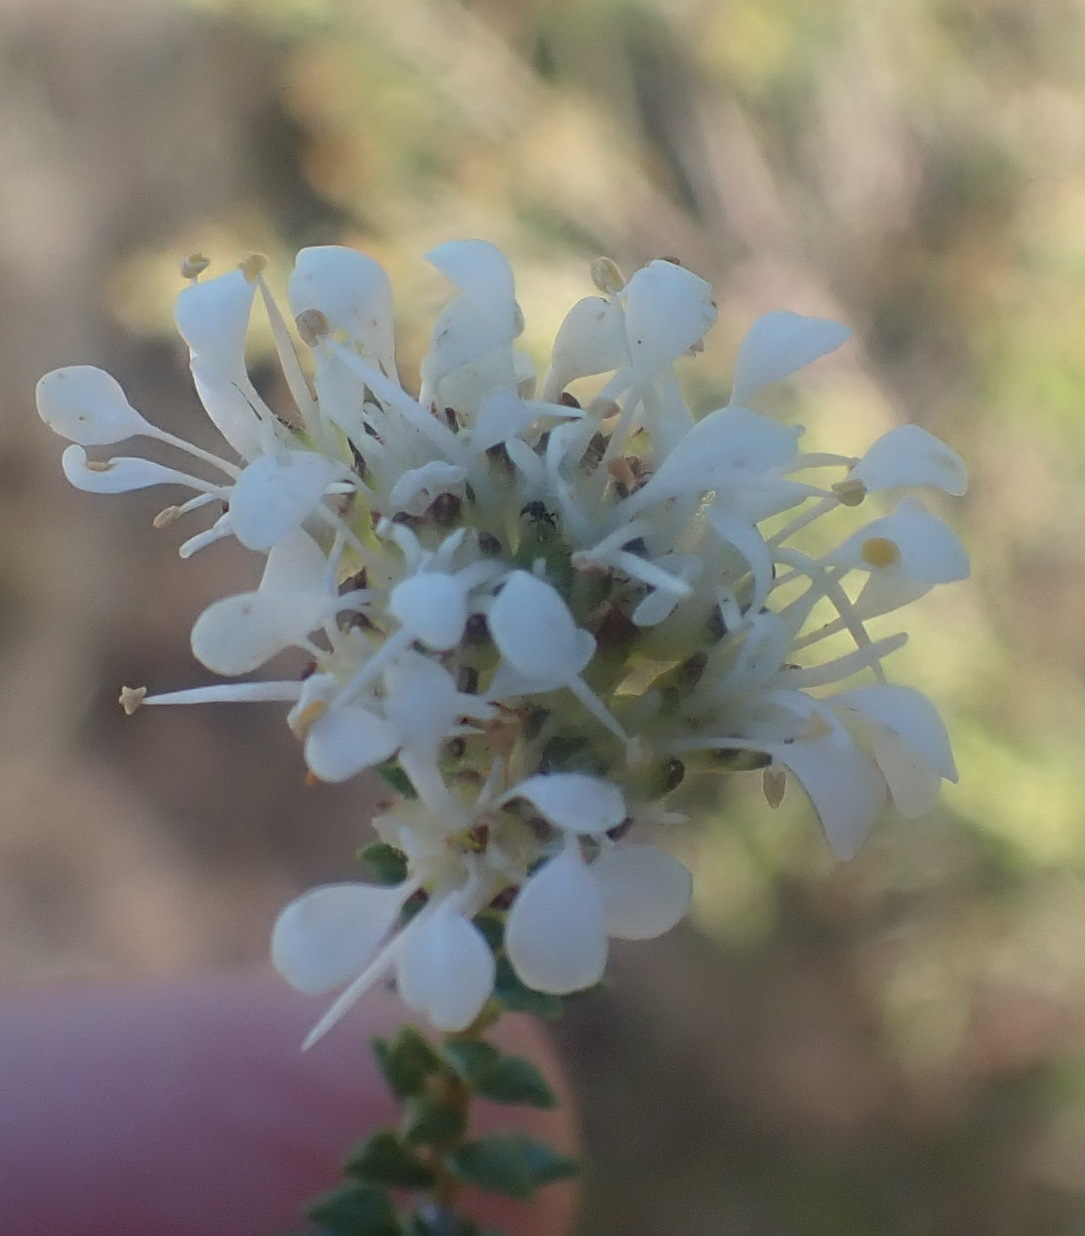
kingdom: Plantae
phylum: Tracheophyta
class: Magnoliopsida
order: Sapindales
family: Rutaceae
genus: Agathosma
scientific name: Agathosma imbricata
